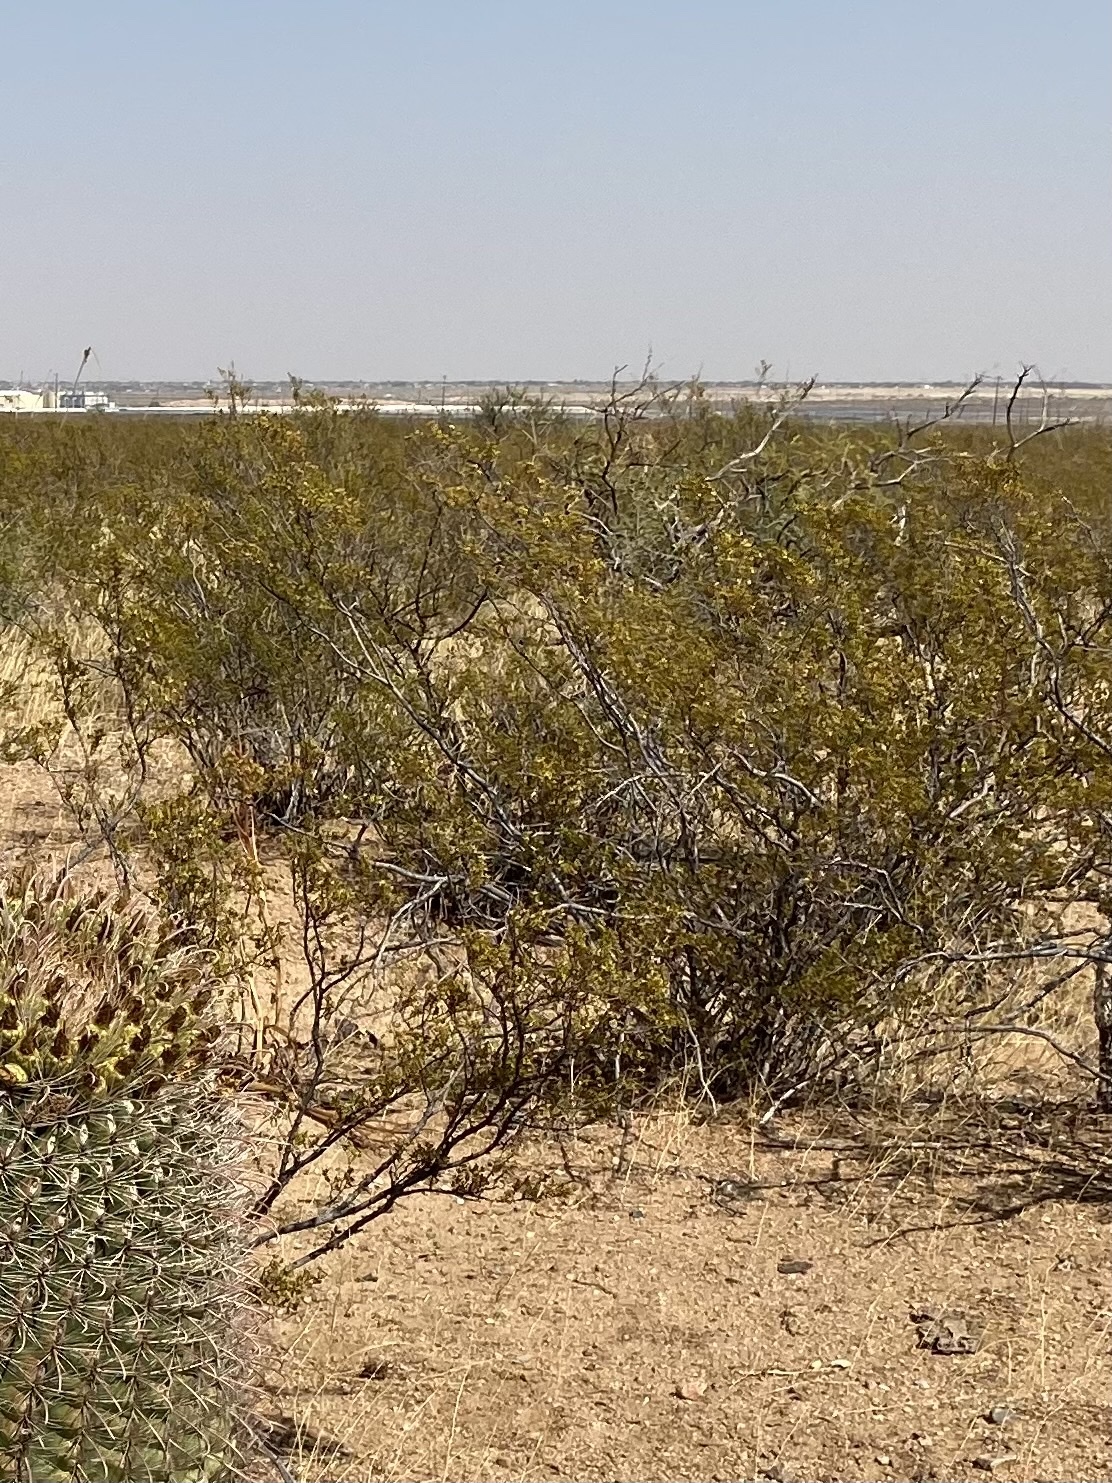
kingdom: Plantae
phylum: Tracheophyta
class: Magnoliopsida
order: Zygophyllales
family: Zygophyllaceae
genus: Larrea
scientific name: Larrea tridentata
